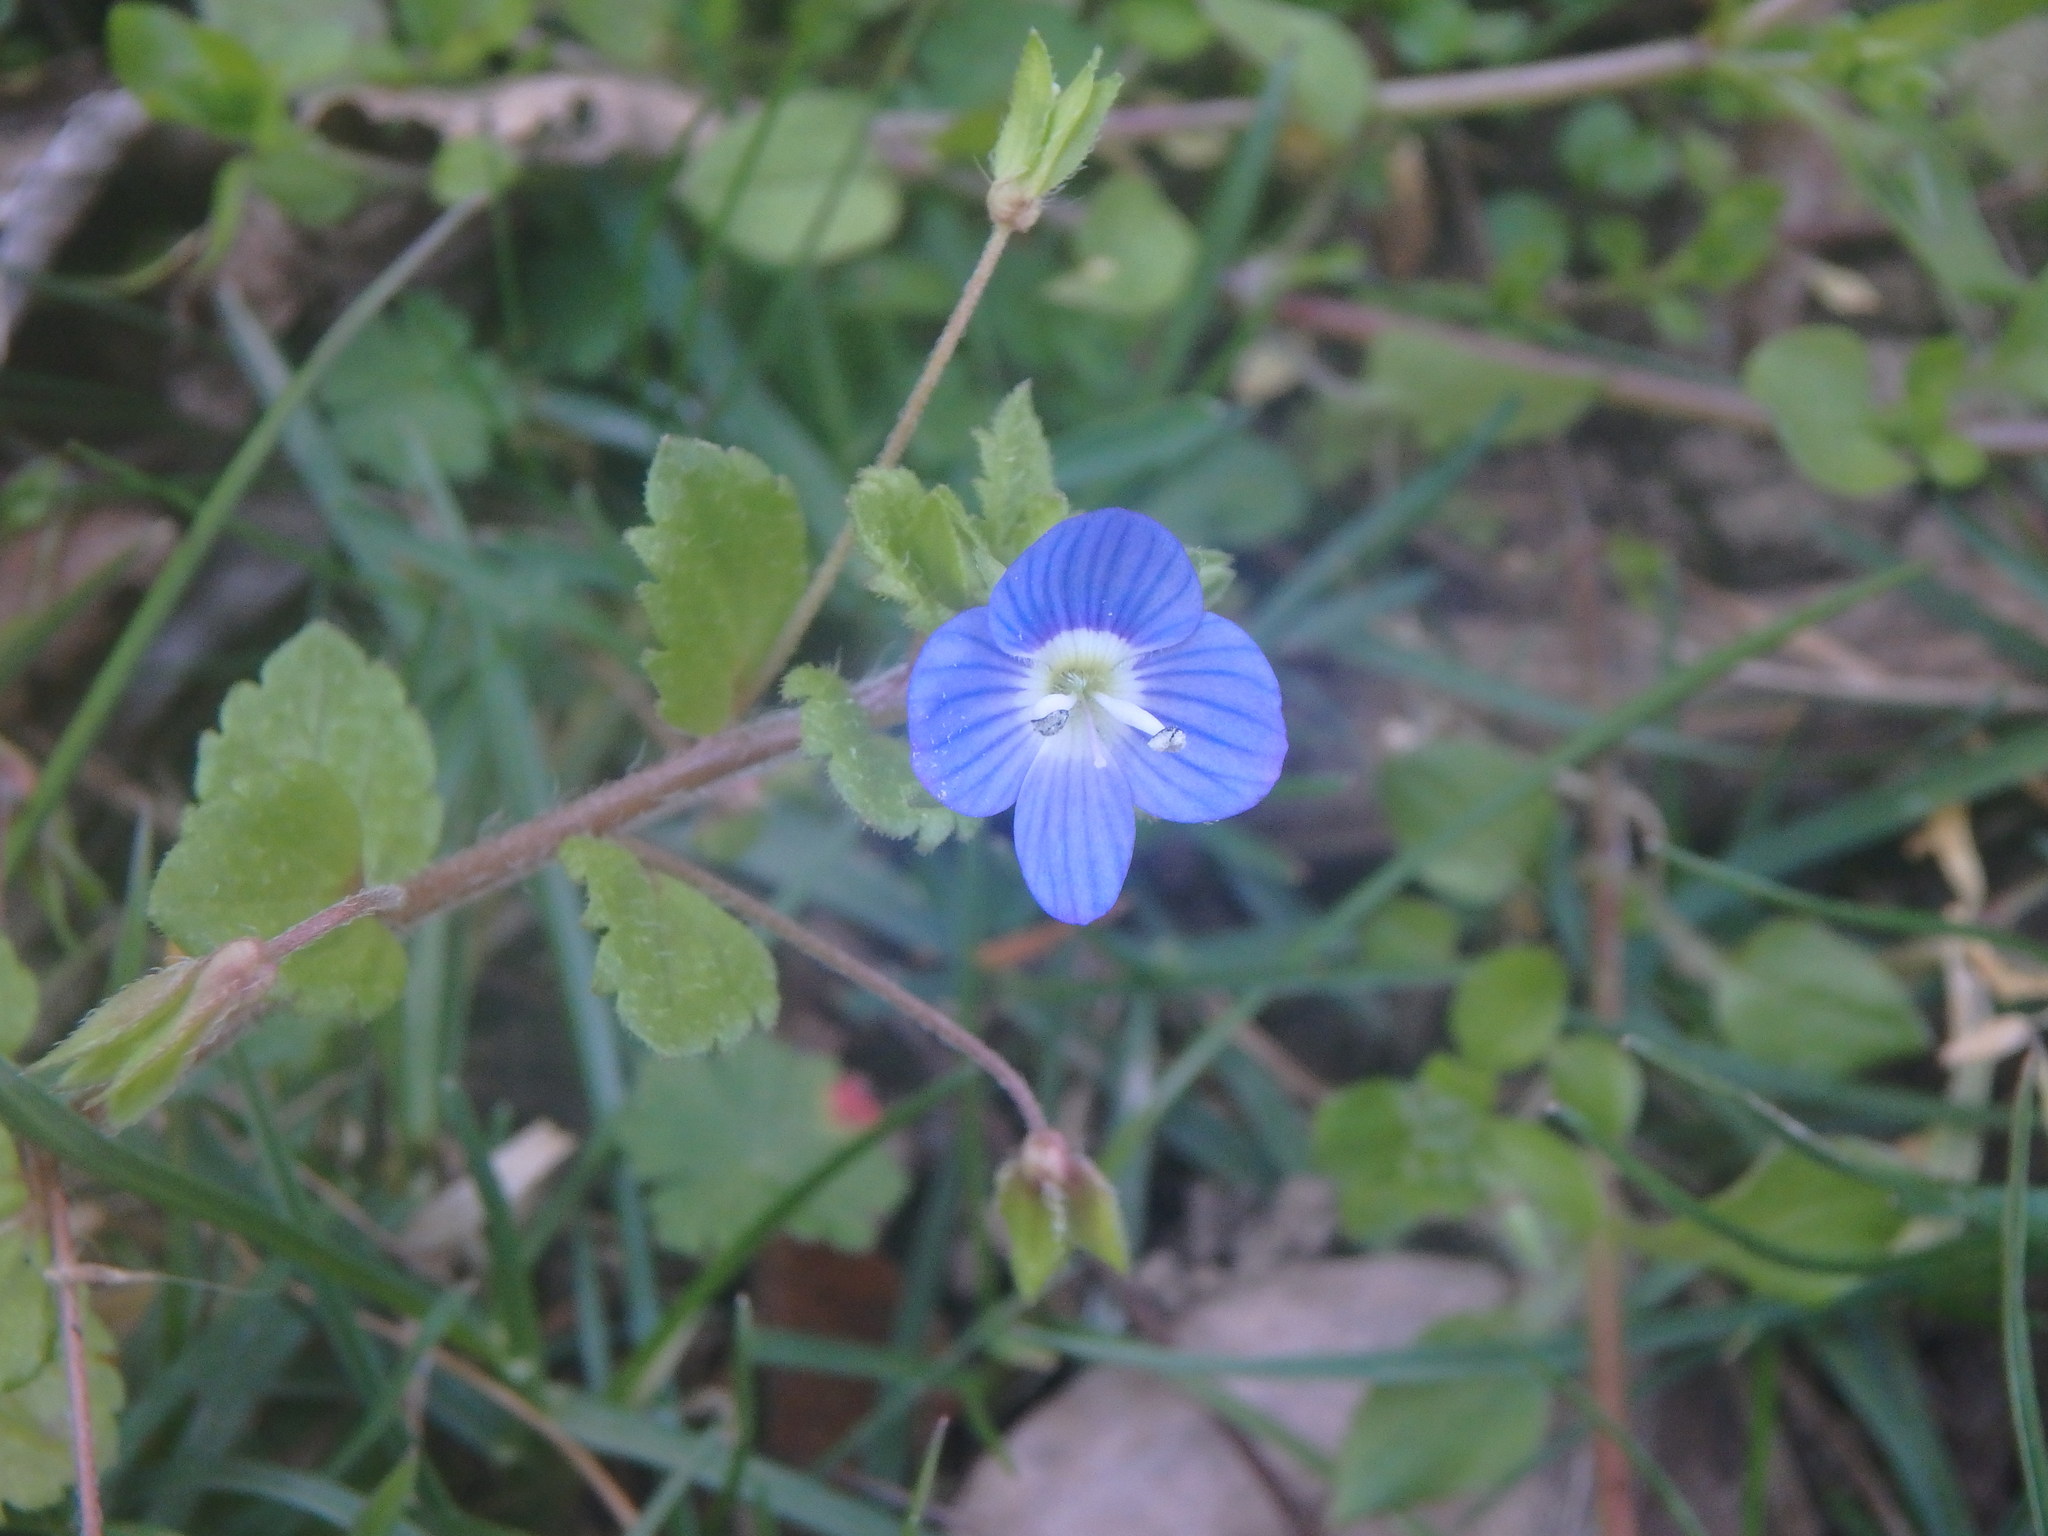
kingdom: Plantae
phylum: Tracheophyta
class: Magnoliopsida
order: Lamiales
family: Plantaginaceae
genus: Veronica
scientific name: Veronica persica
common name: Common field-speedwell
